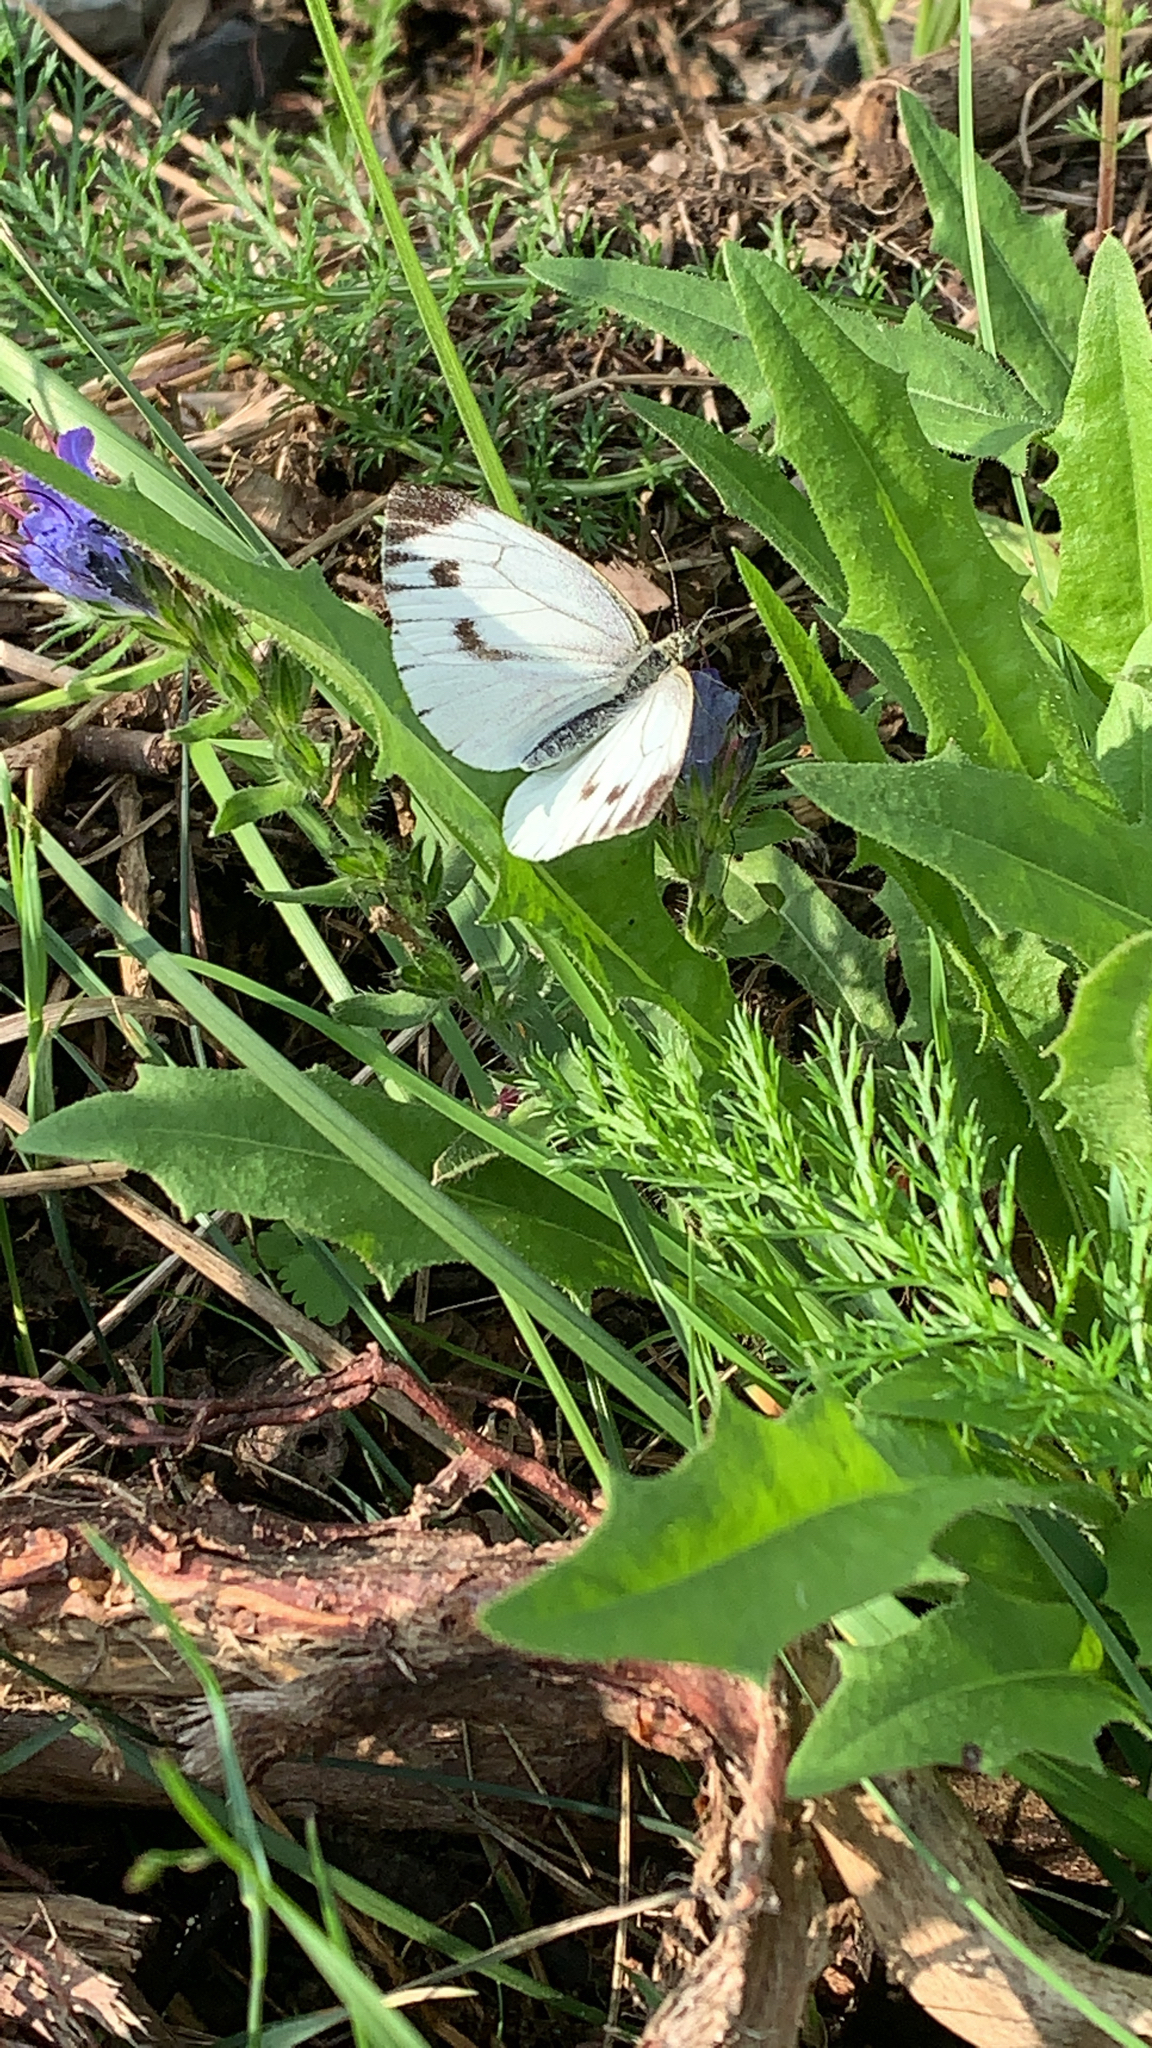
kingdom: Animalia
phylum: Arthropoda
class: Insecta
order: Lepidoptera
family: Pieridae
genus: Pieris
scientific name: Pieris napi
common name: Green-veined white
